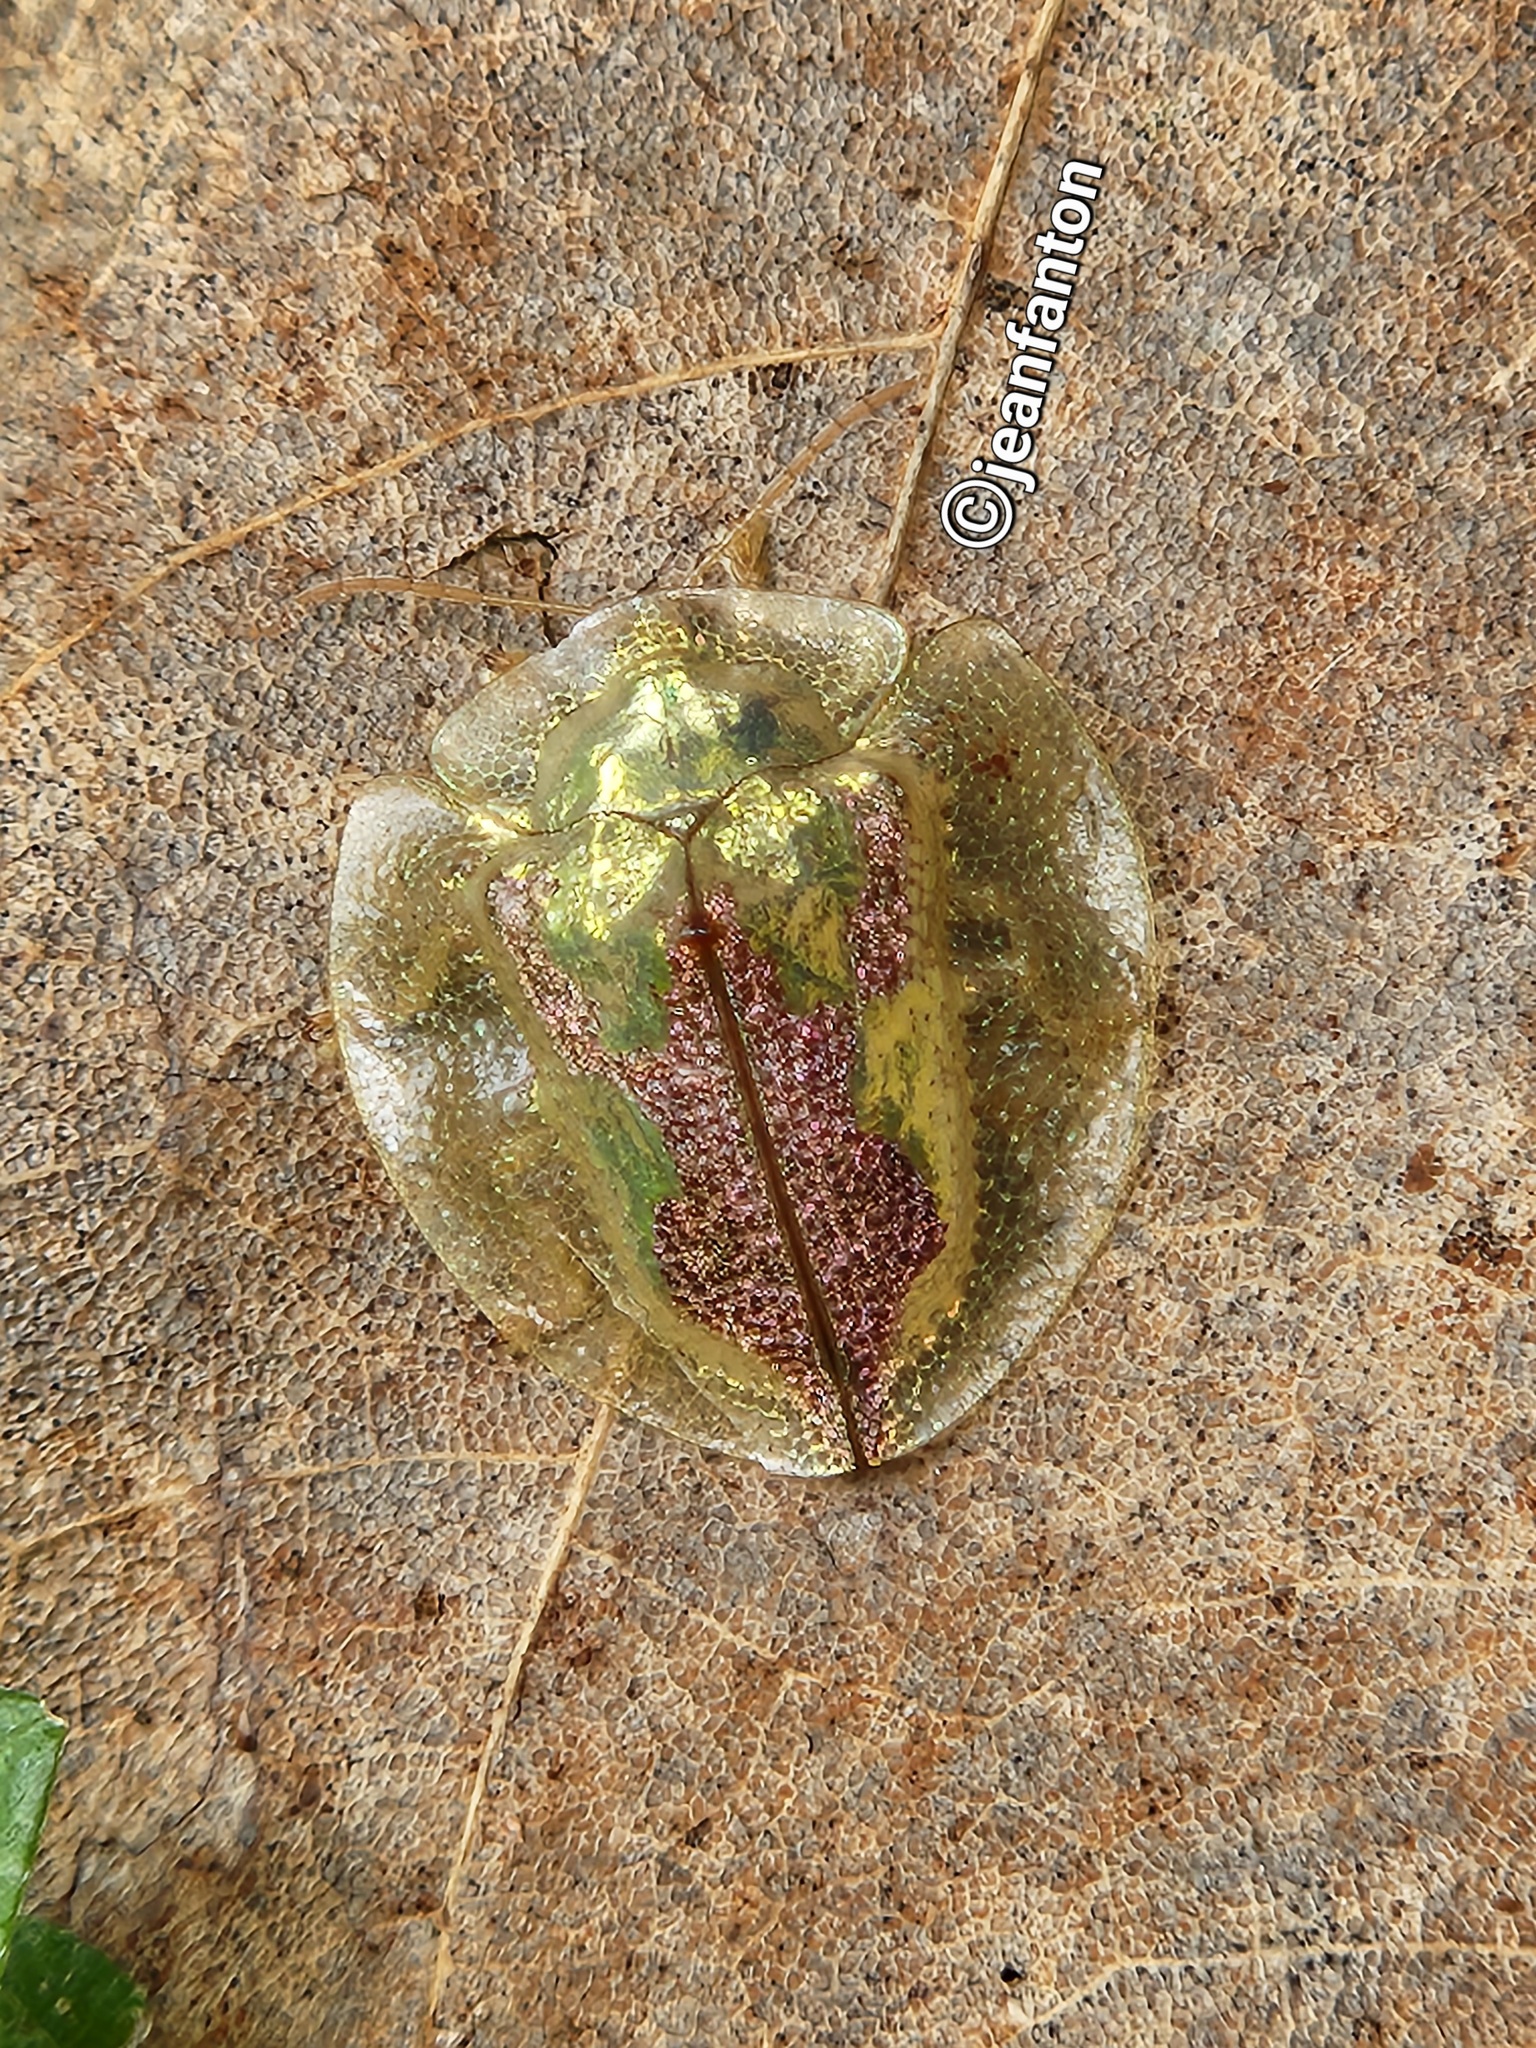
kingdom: Animalia
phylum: Arthropoda
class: Insecta
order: Coleoptera
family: Chrysomelidae
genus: Coptocycla
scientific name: Coptocycla contemta
